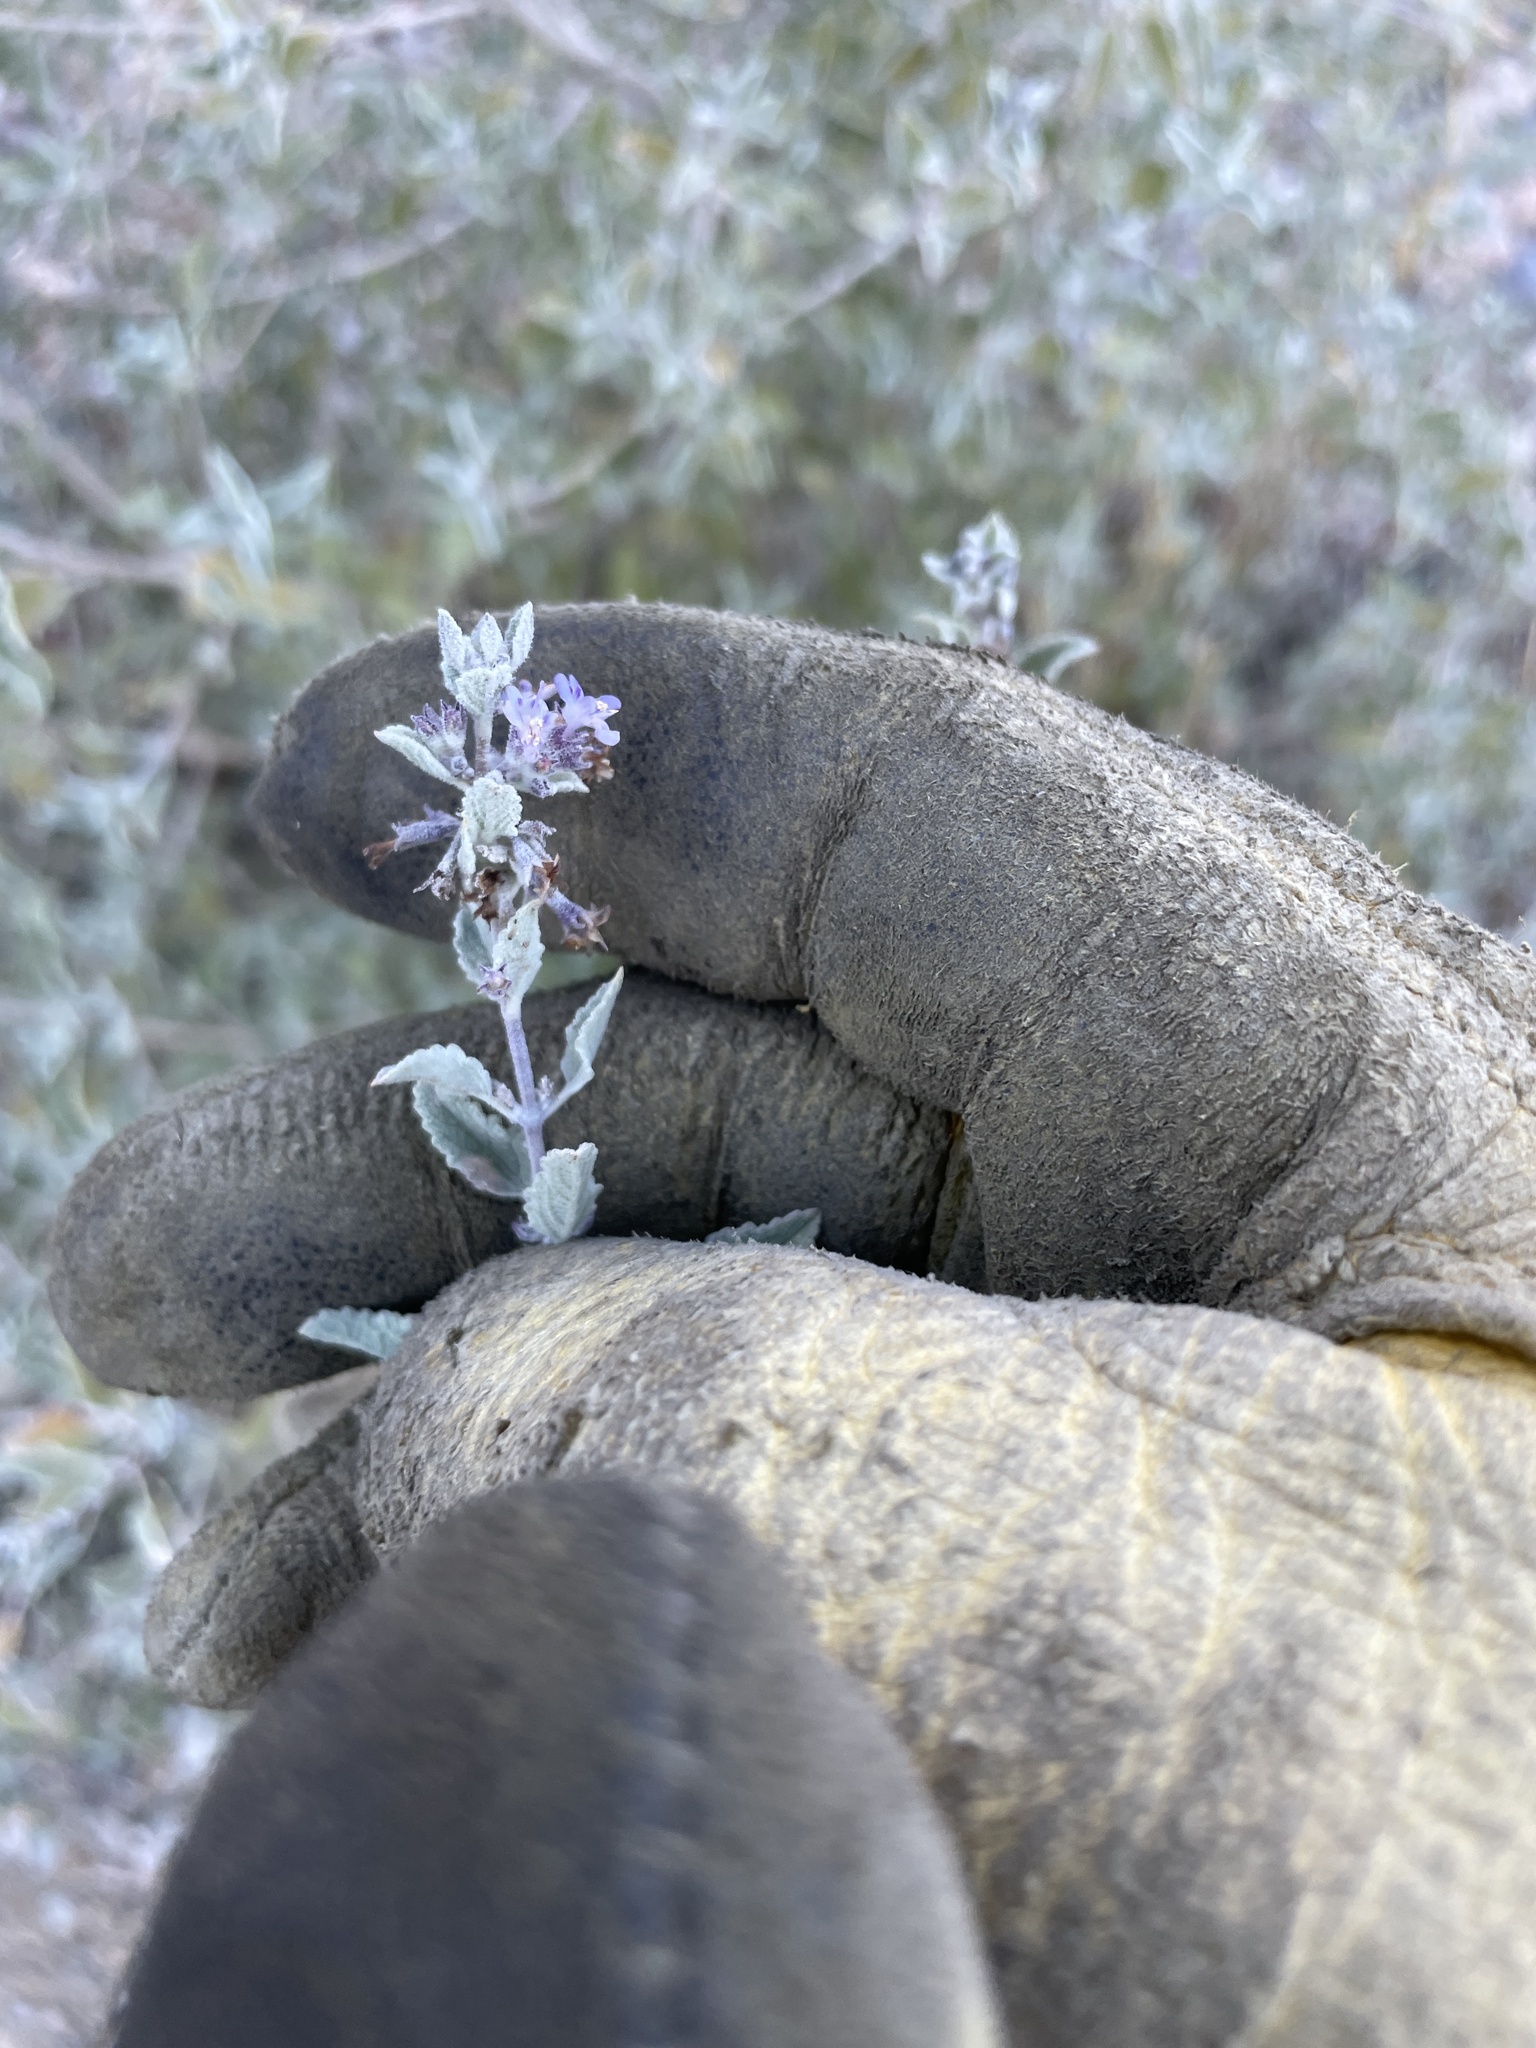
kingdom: Plantae
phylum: Tracheophyta
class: Magnoliopsida
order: Lamiales
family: Lamiaceae
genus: Condea
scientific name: Condea emoryi
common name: Chia
